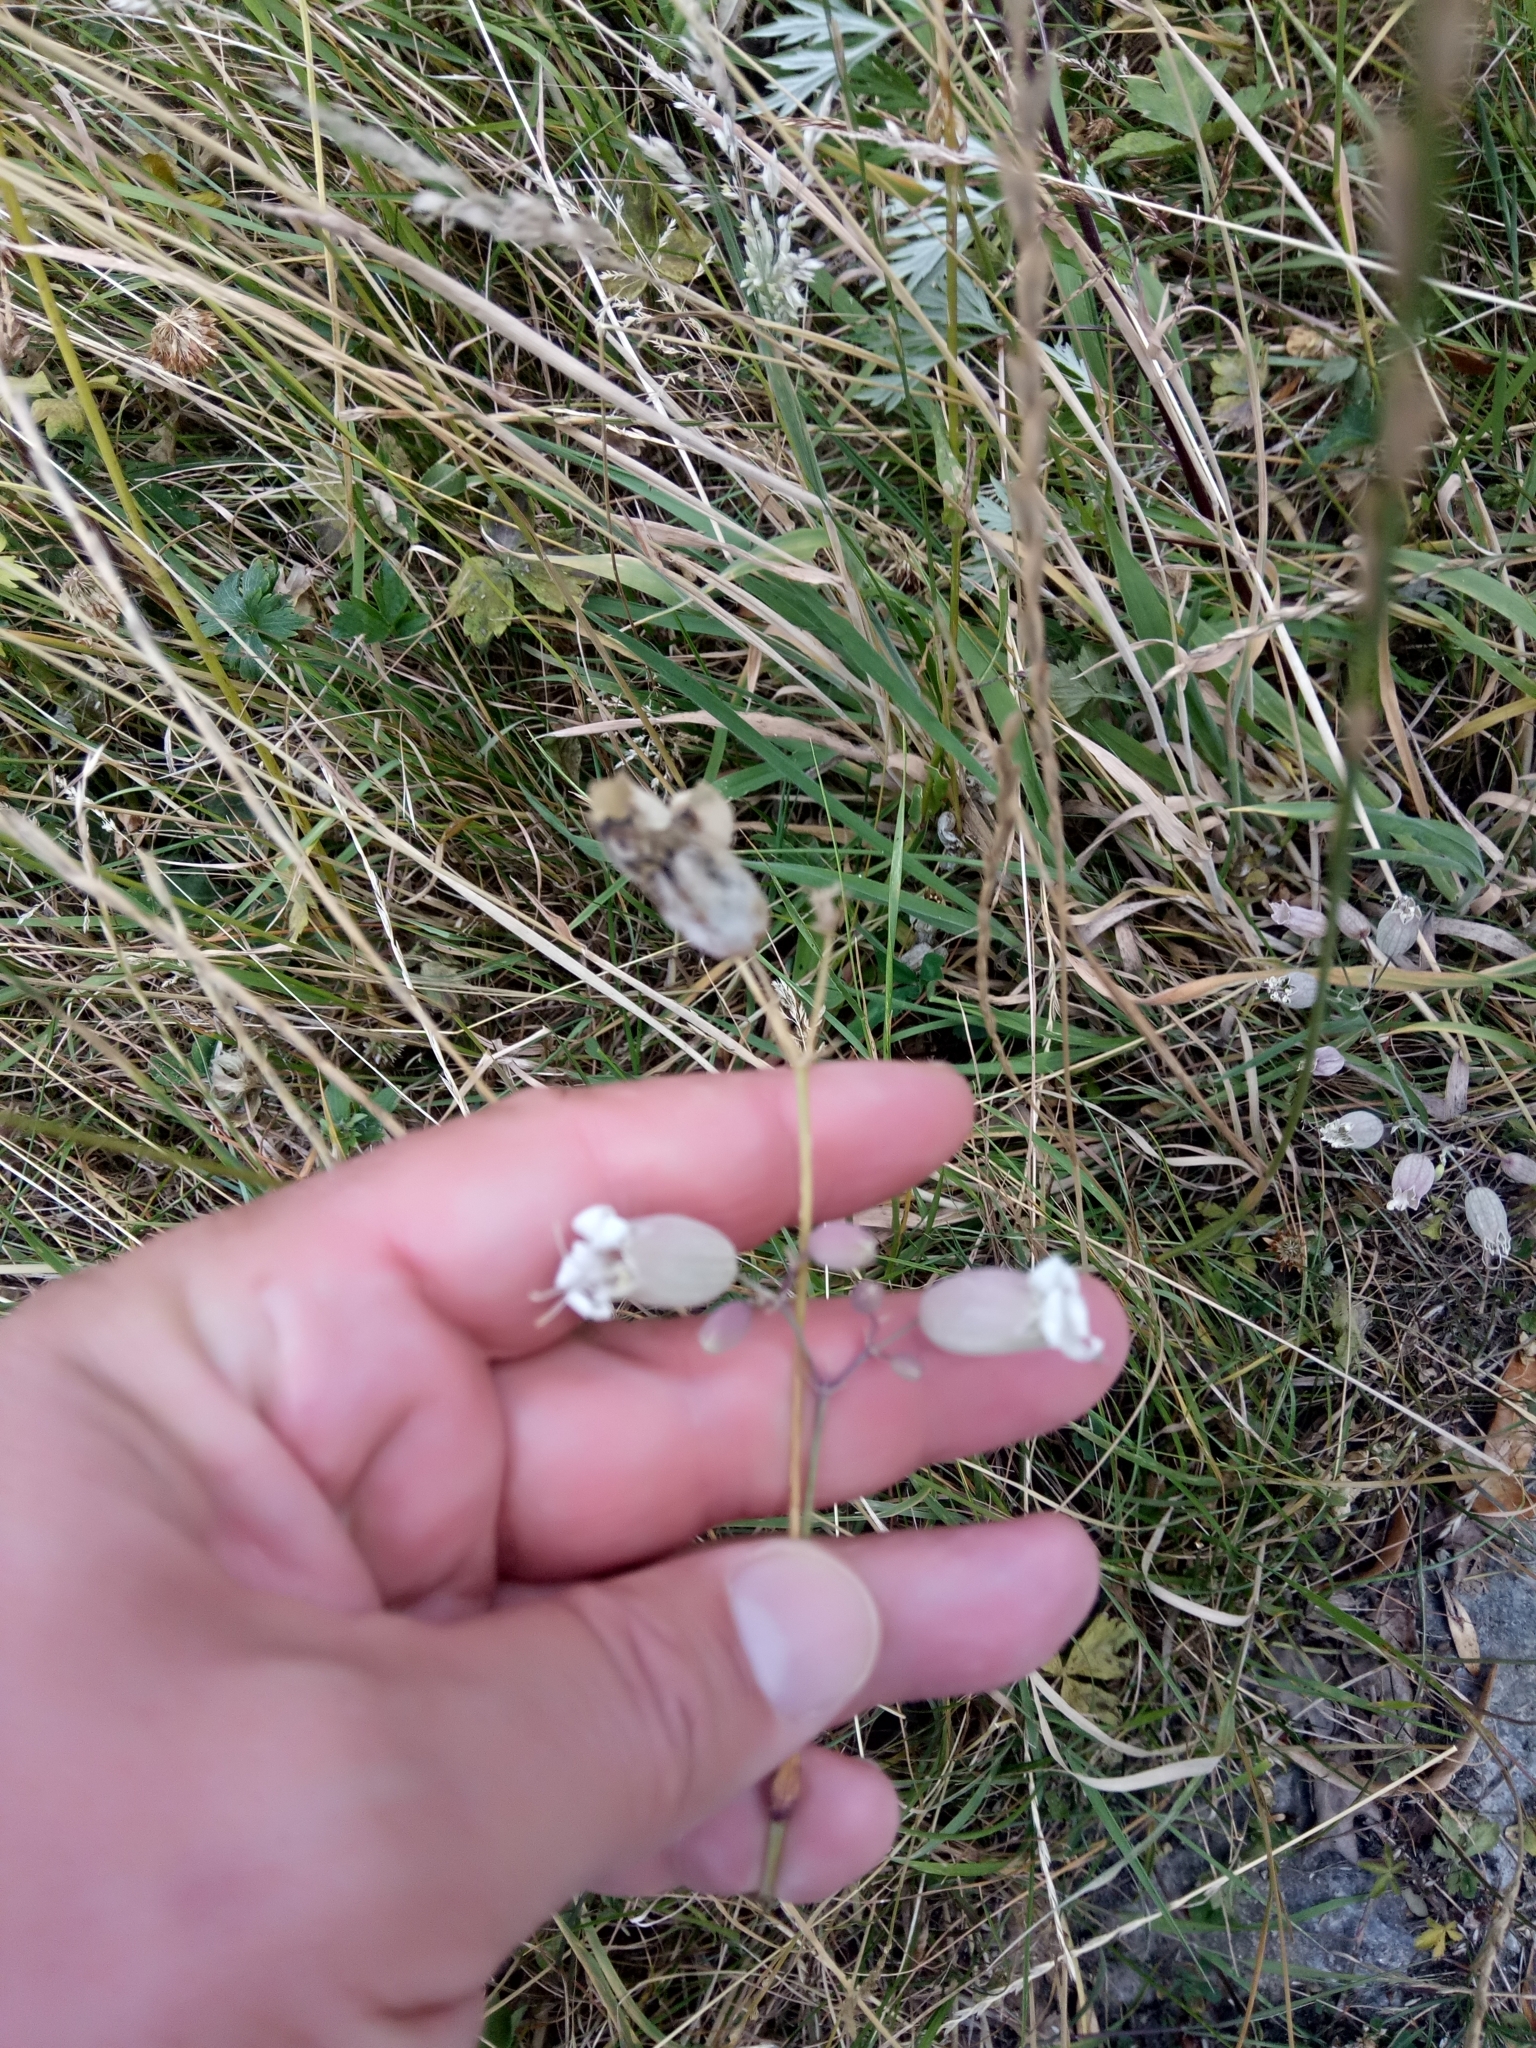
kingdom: Plantae
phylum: Tracheophyta
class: Magnoliopsida
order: Caryophyllales
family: Caryophyllaceae
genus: Silene
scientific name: Silene vulgaris
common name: Bladder campion
